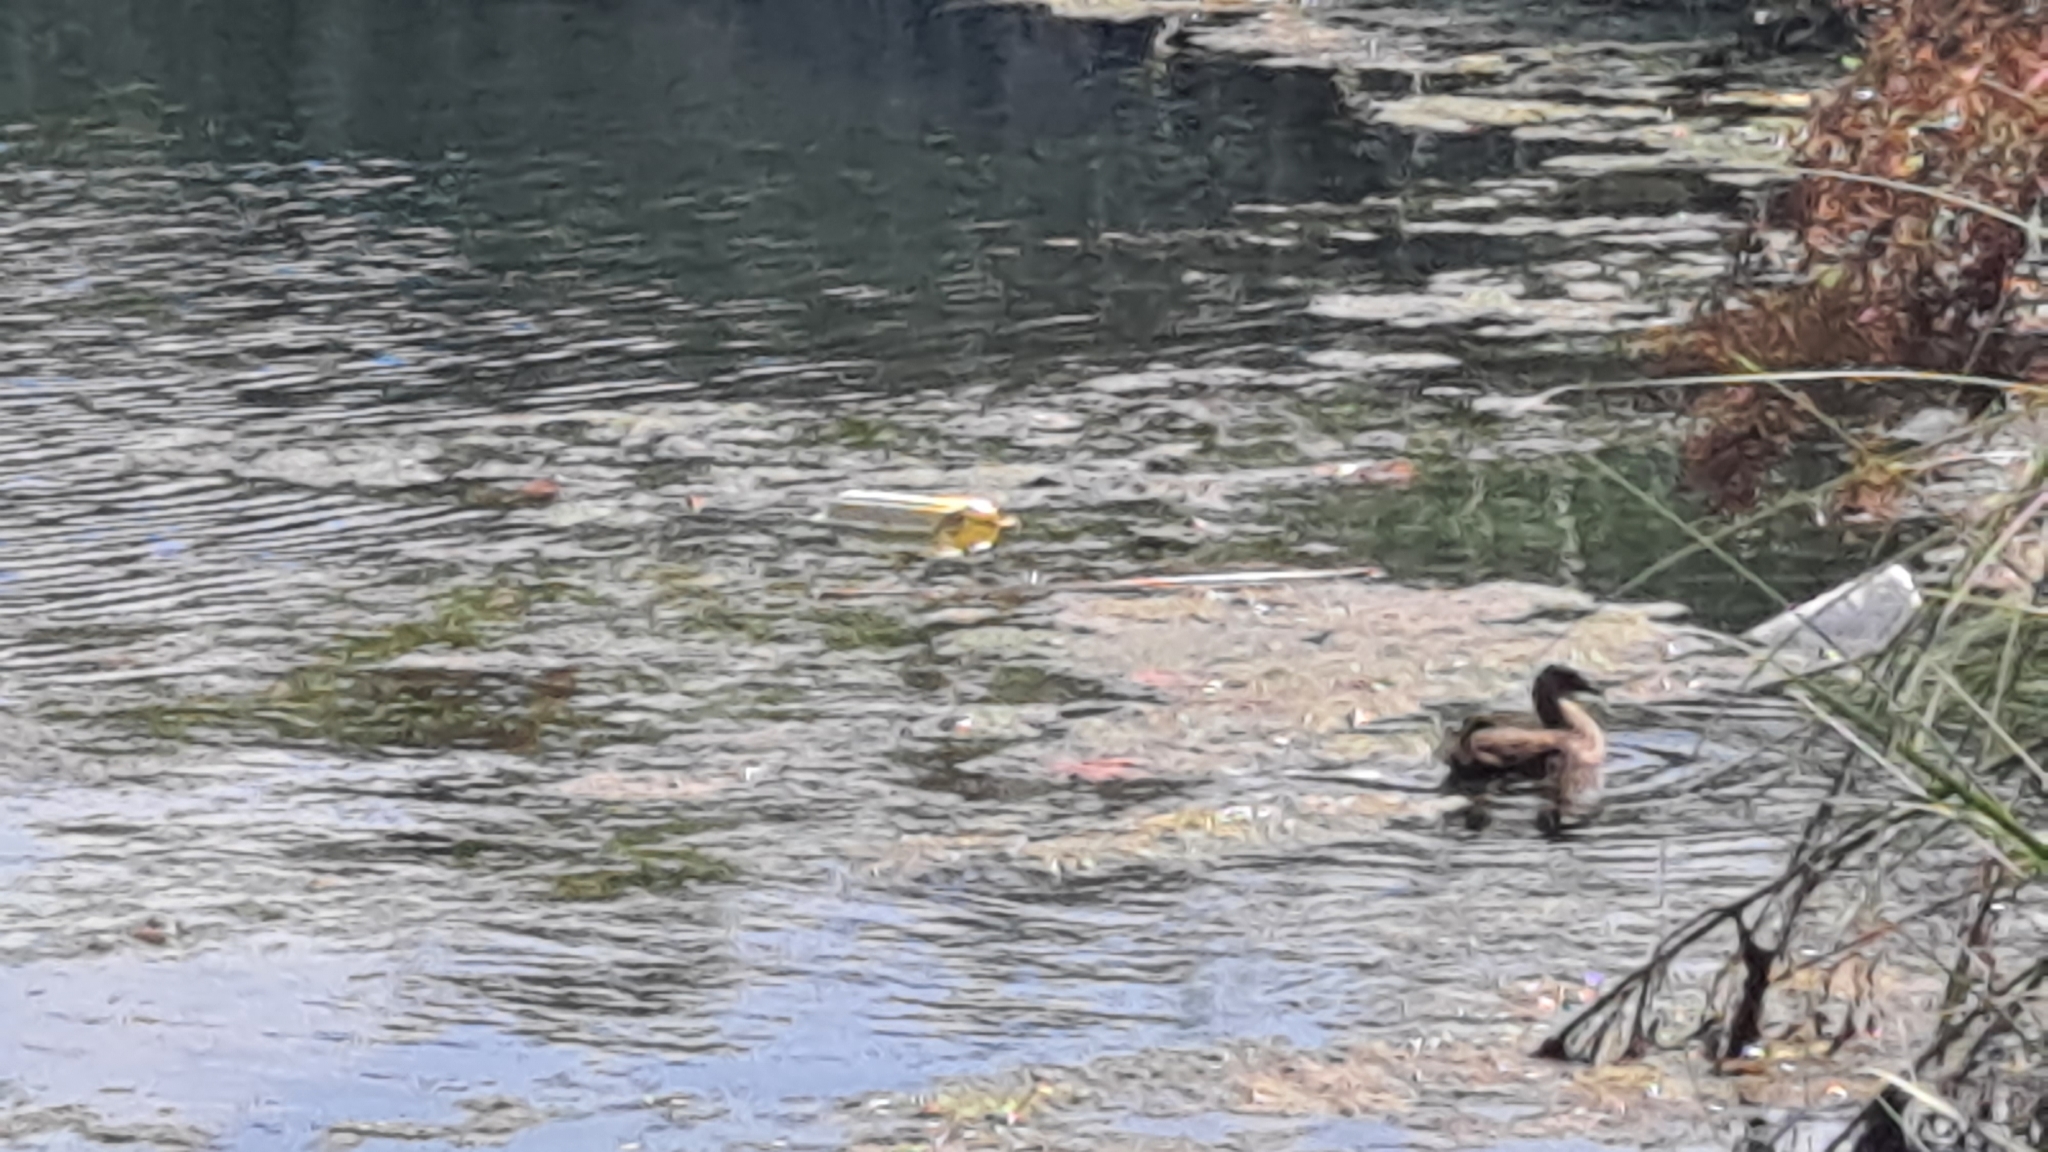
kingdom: Animalia
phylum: Chordata
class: Aves
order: Gruiformes
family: Rallidae
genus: Gallinula
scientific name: Gallinula chloropus
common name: Common moorhen
